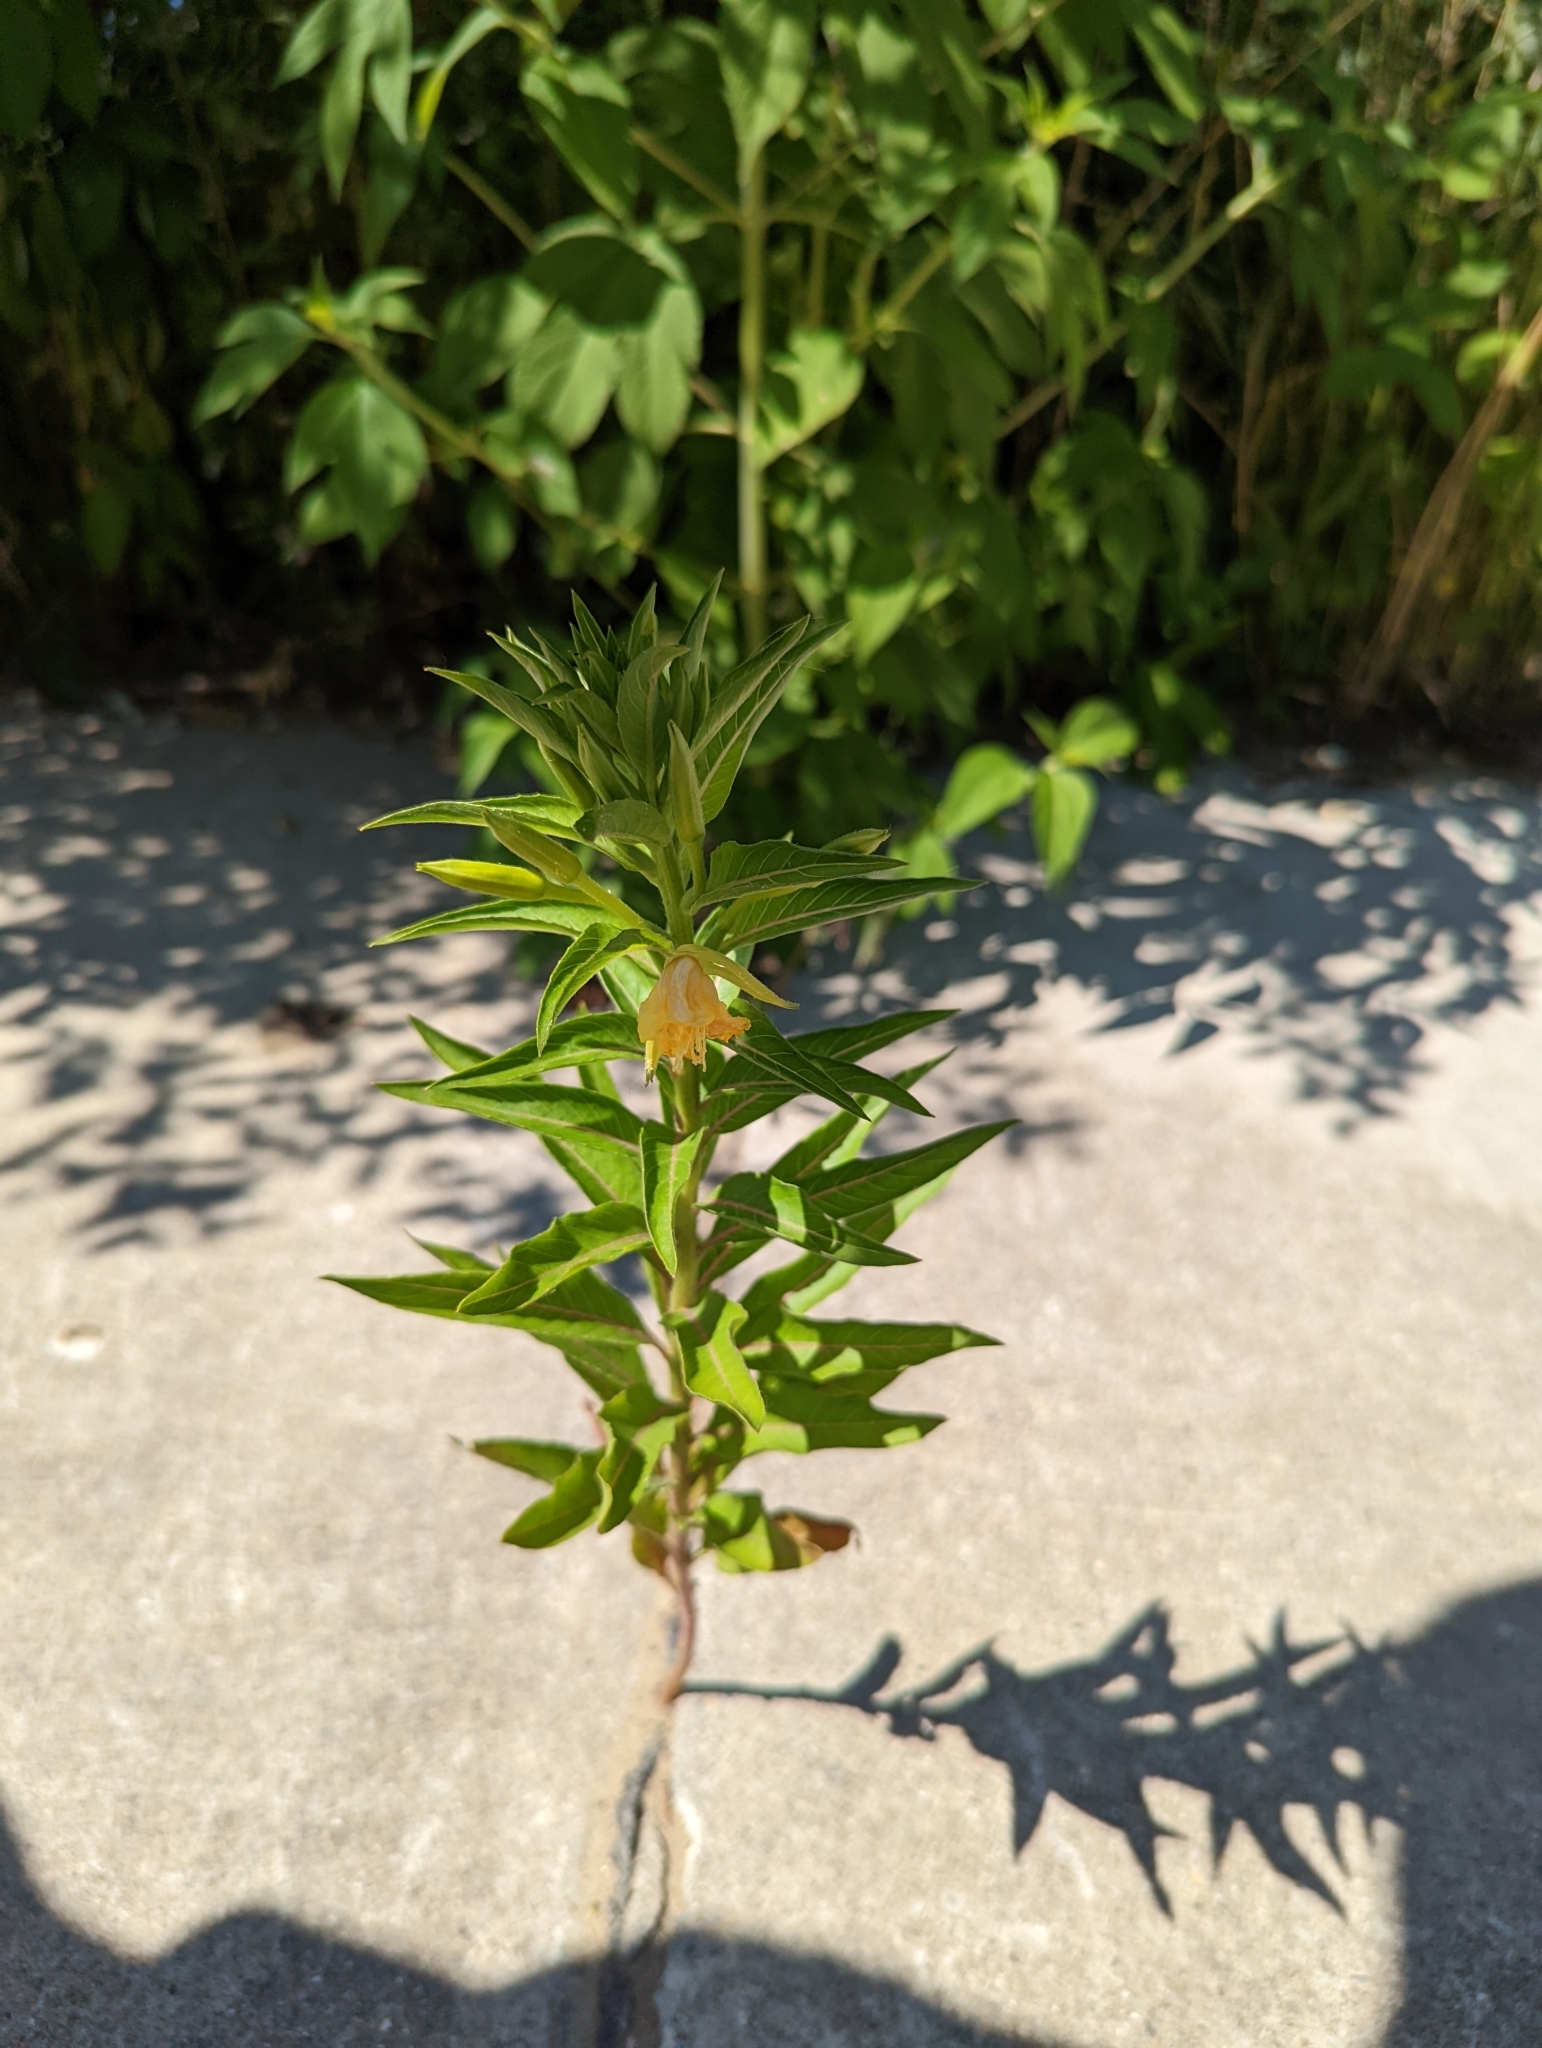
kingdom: Plantae
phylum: Tracheophyta
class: Magnoliopsida
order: Myrtales
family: Onagraceae
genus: Oenothera
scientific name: Oenothera biennis
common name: Common evening-primrose
